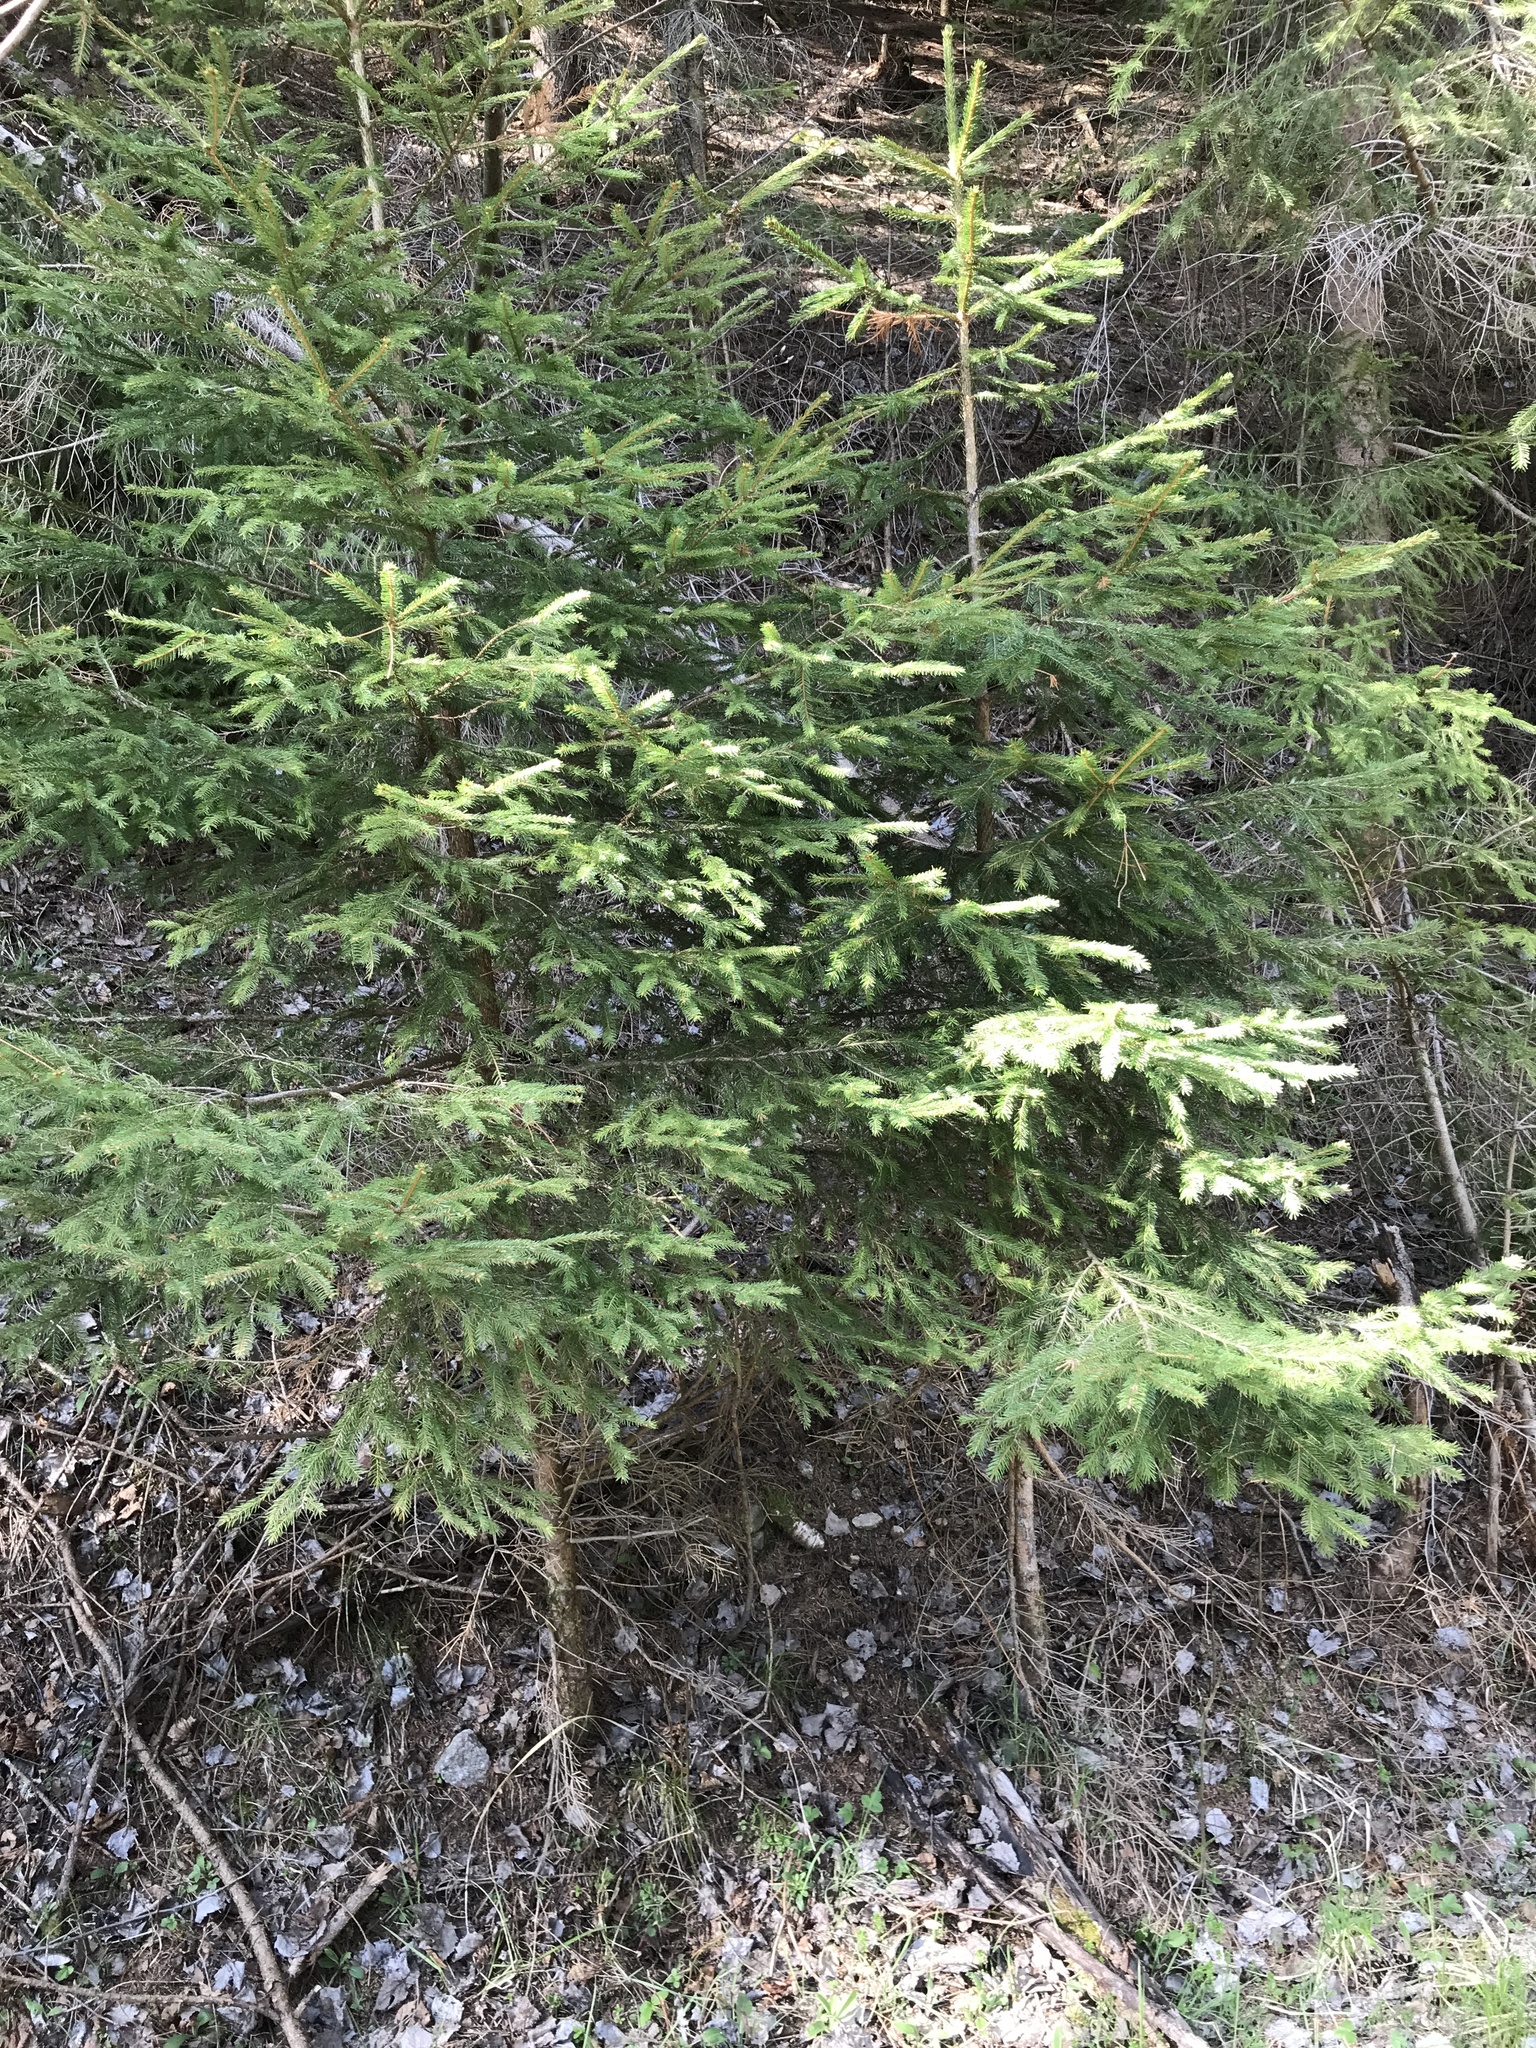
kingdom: Plantae
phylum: Tracheophyta
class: Pinopsida
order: Pinales
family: Pinaceae
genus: Picea
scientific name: Picea abies
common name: Norway spruce
